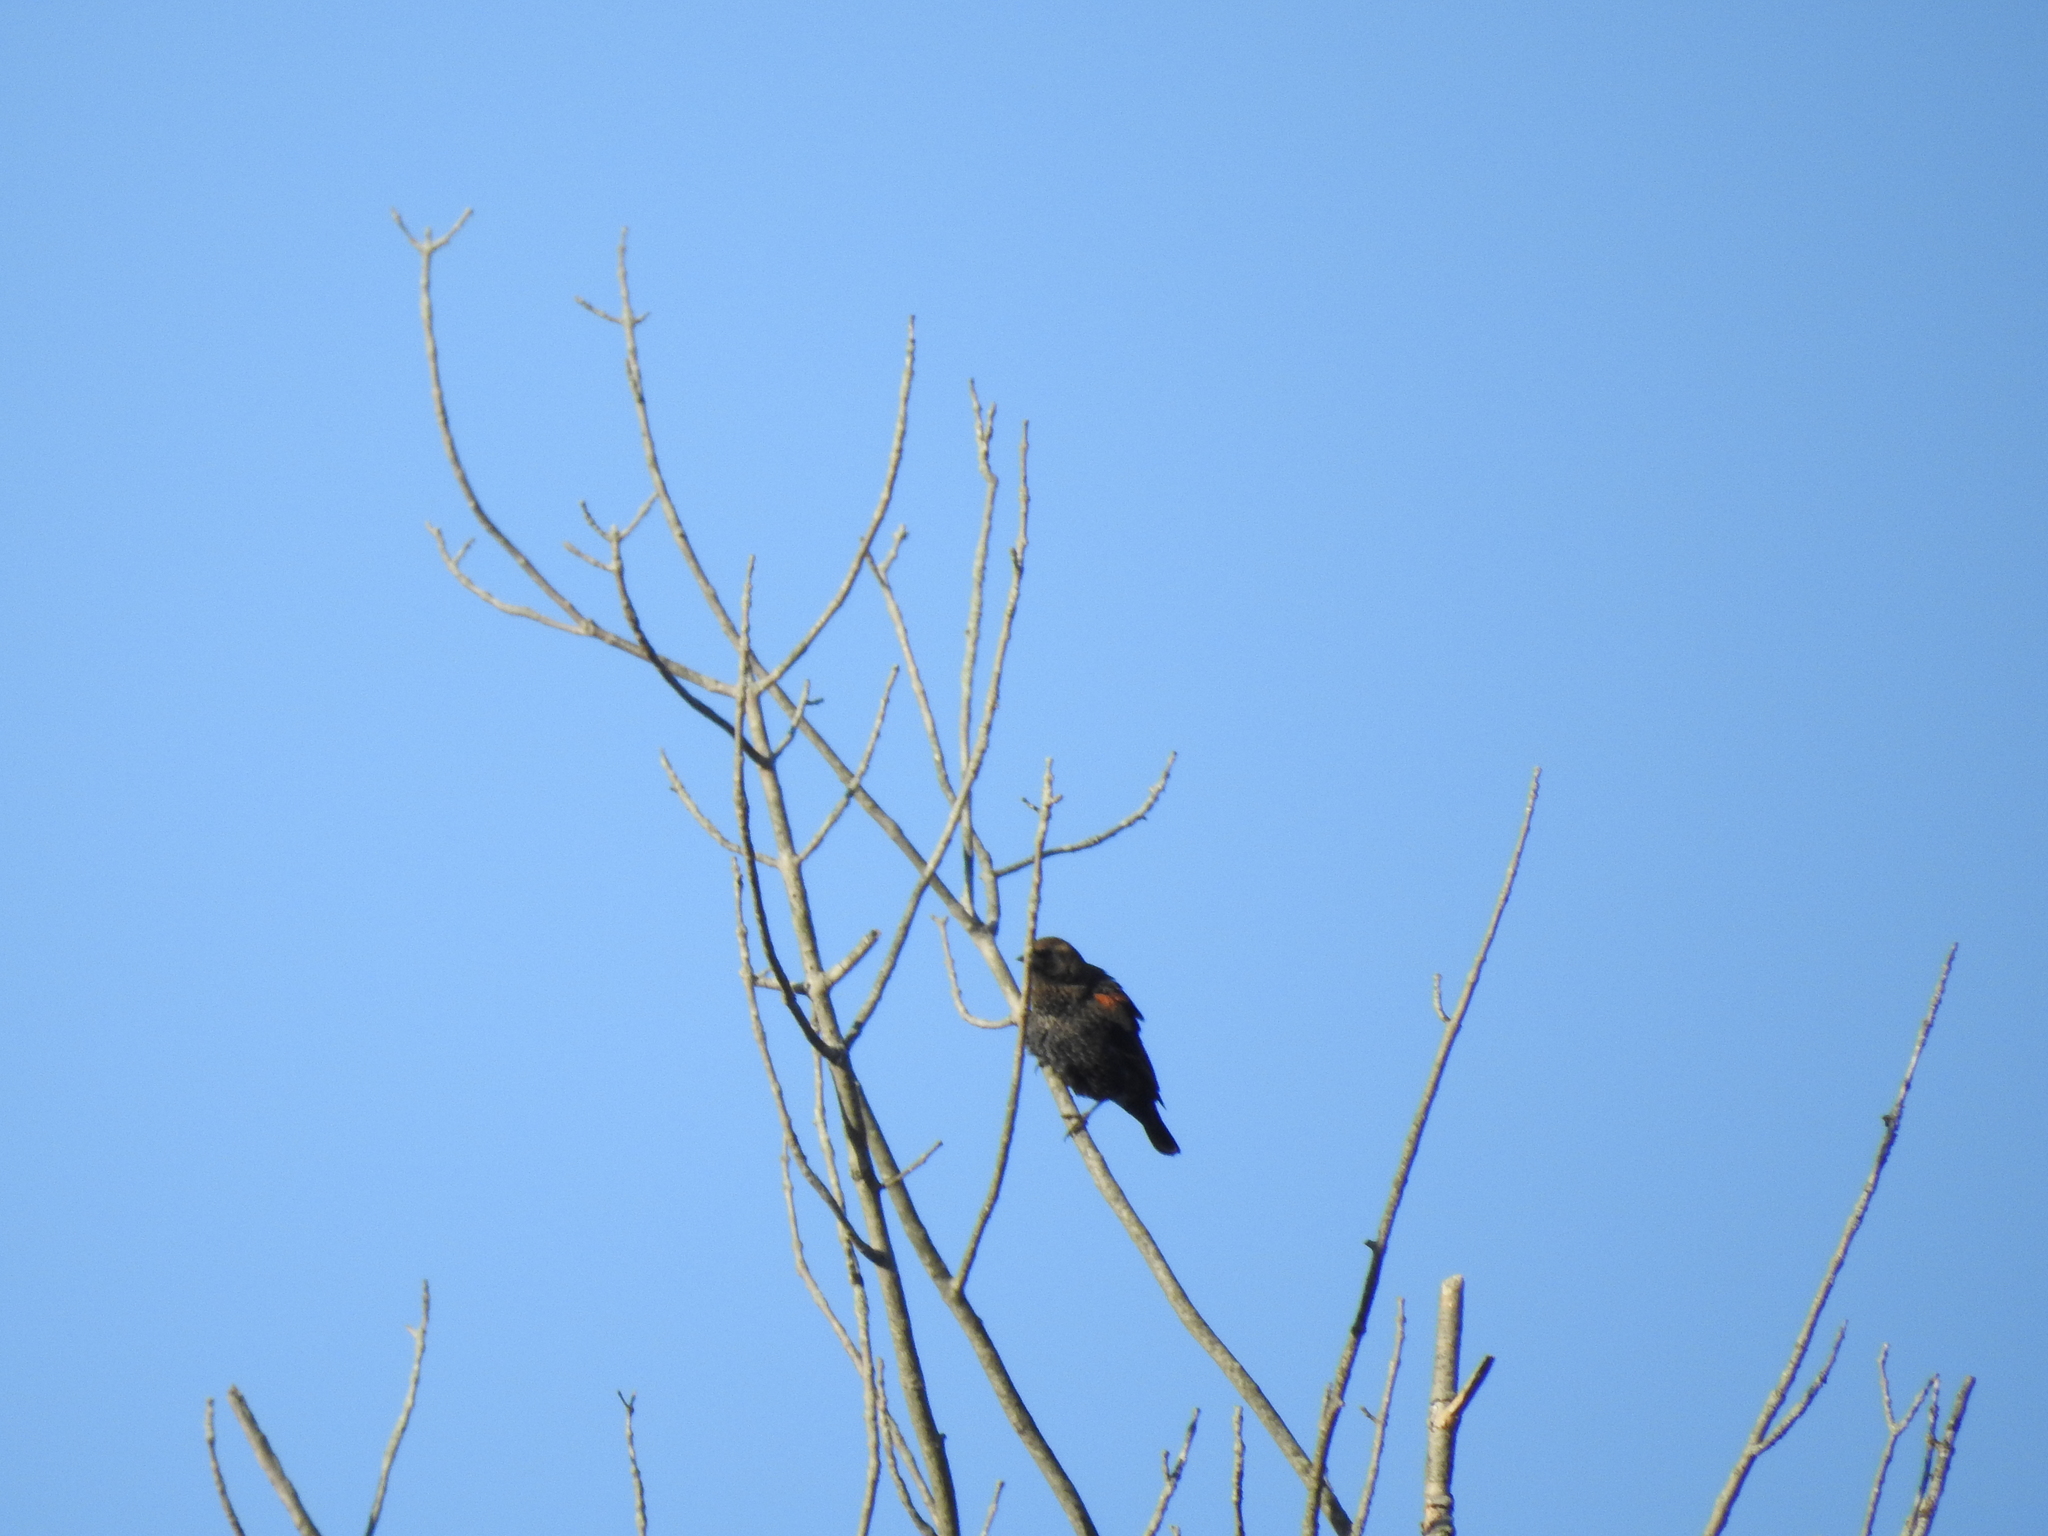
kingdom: Animalia
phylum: Chordata
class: Aves
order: Passeriformes
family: Icteridae
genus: Agelaius
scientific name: Agelaius phoeniceus
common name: Red-winged blackbird
